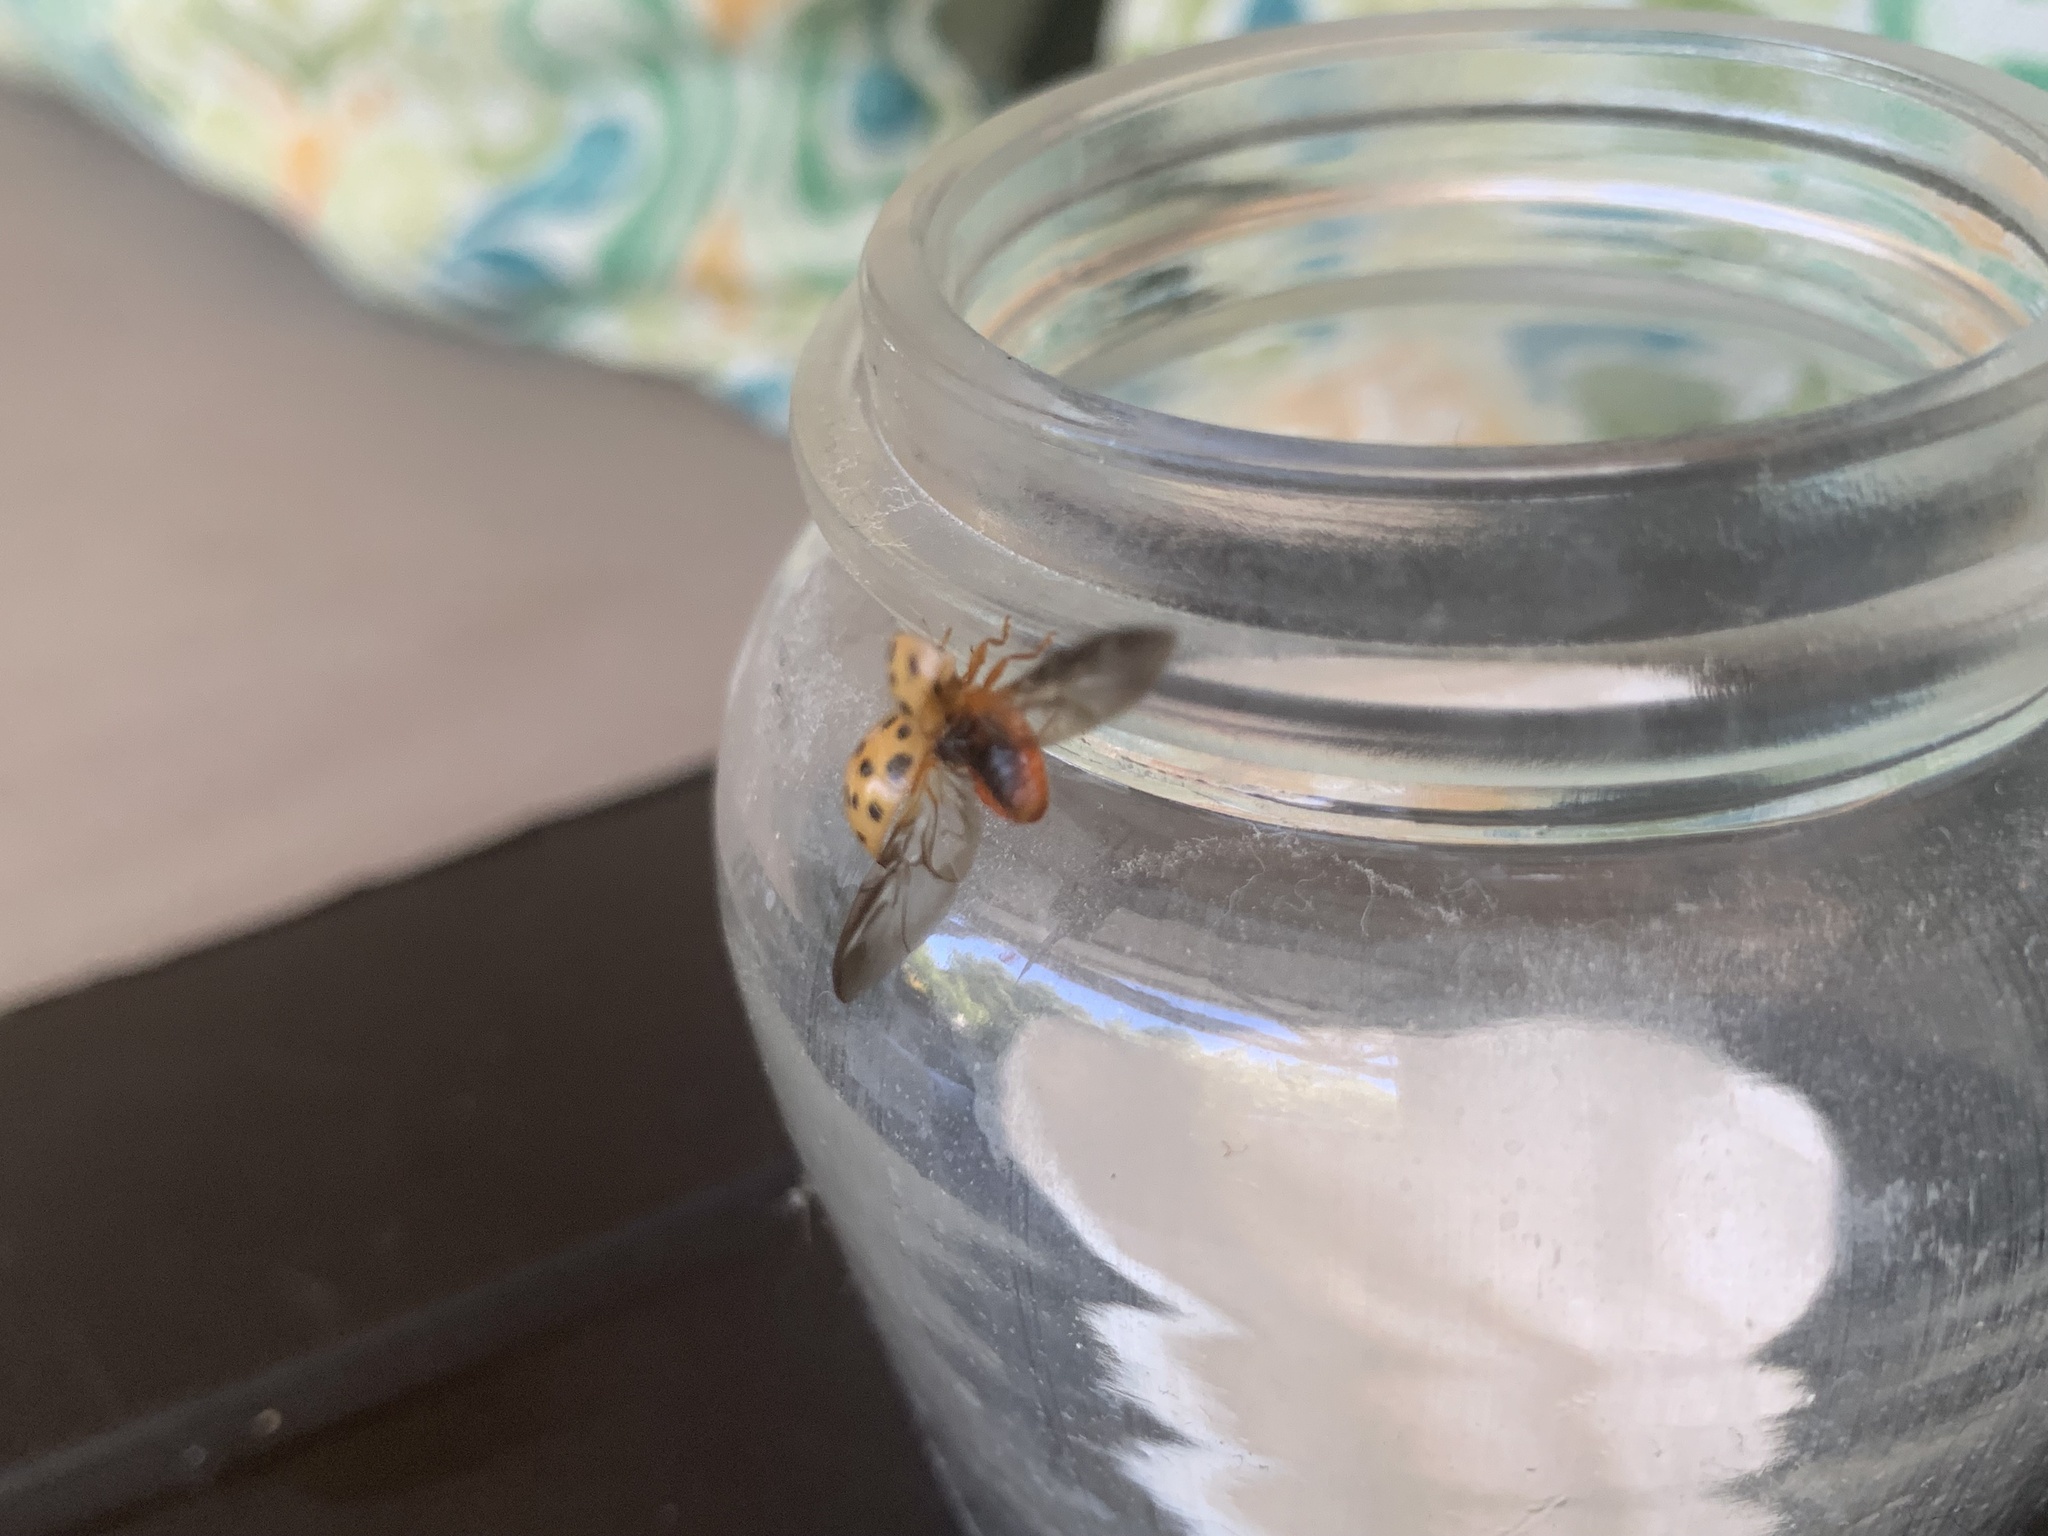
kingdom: Animalia
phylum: Arthropoda
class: Insecta
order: Coleoptera
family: Coccinellidae
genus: Harmonia
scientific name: Harmonia axyridis
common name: Harlequin ladybird
